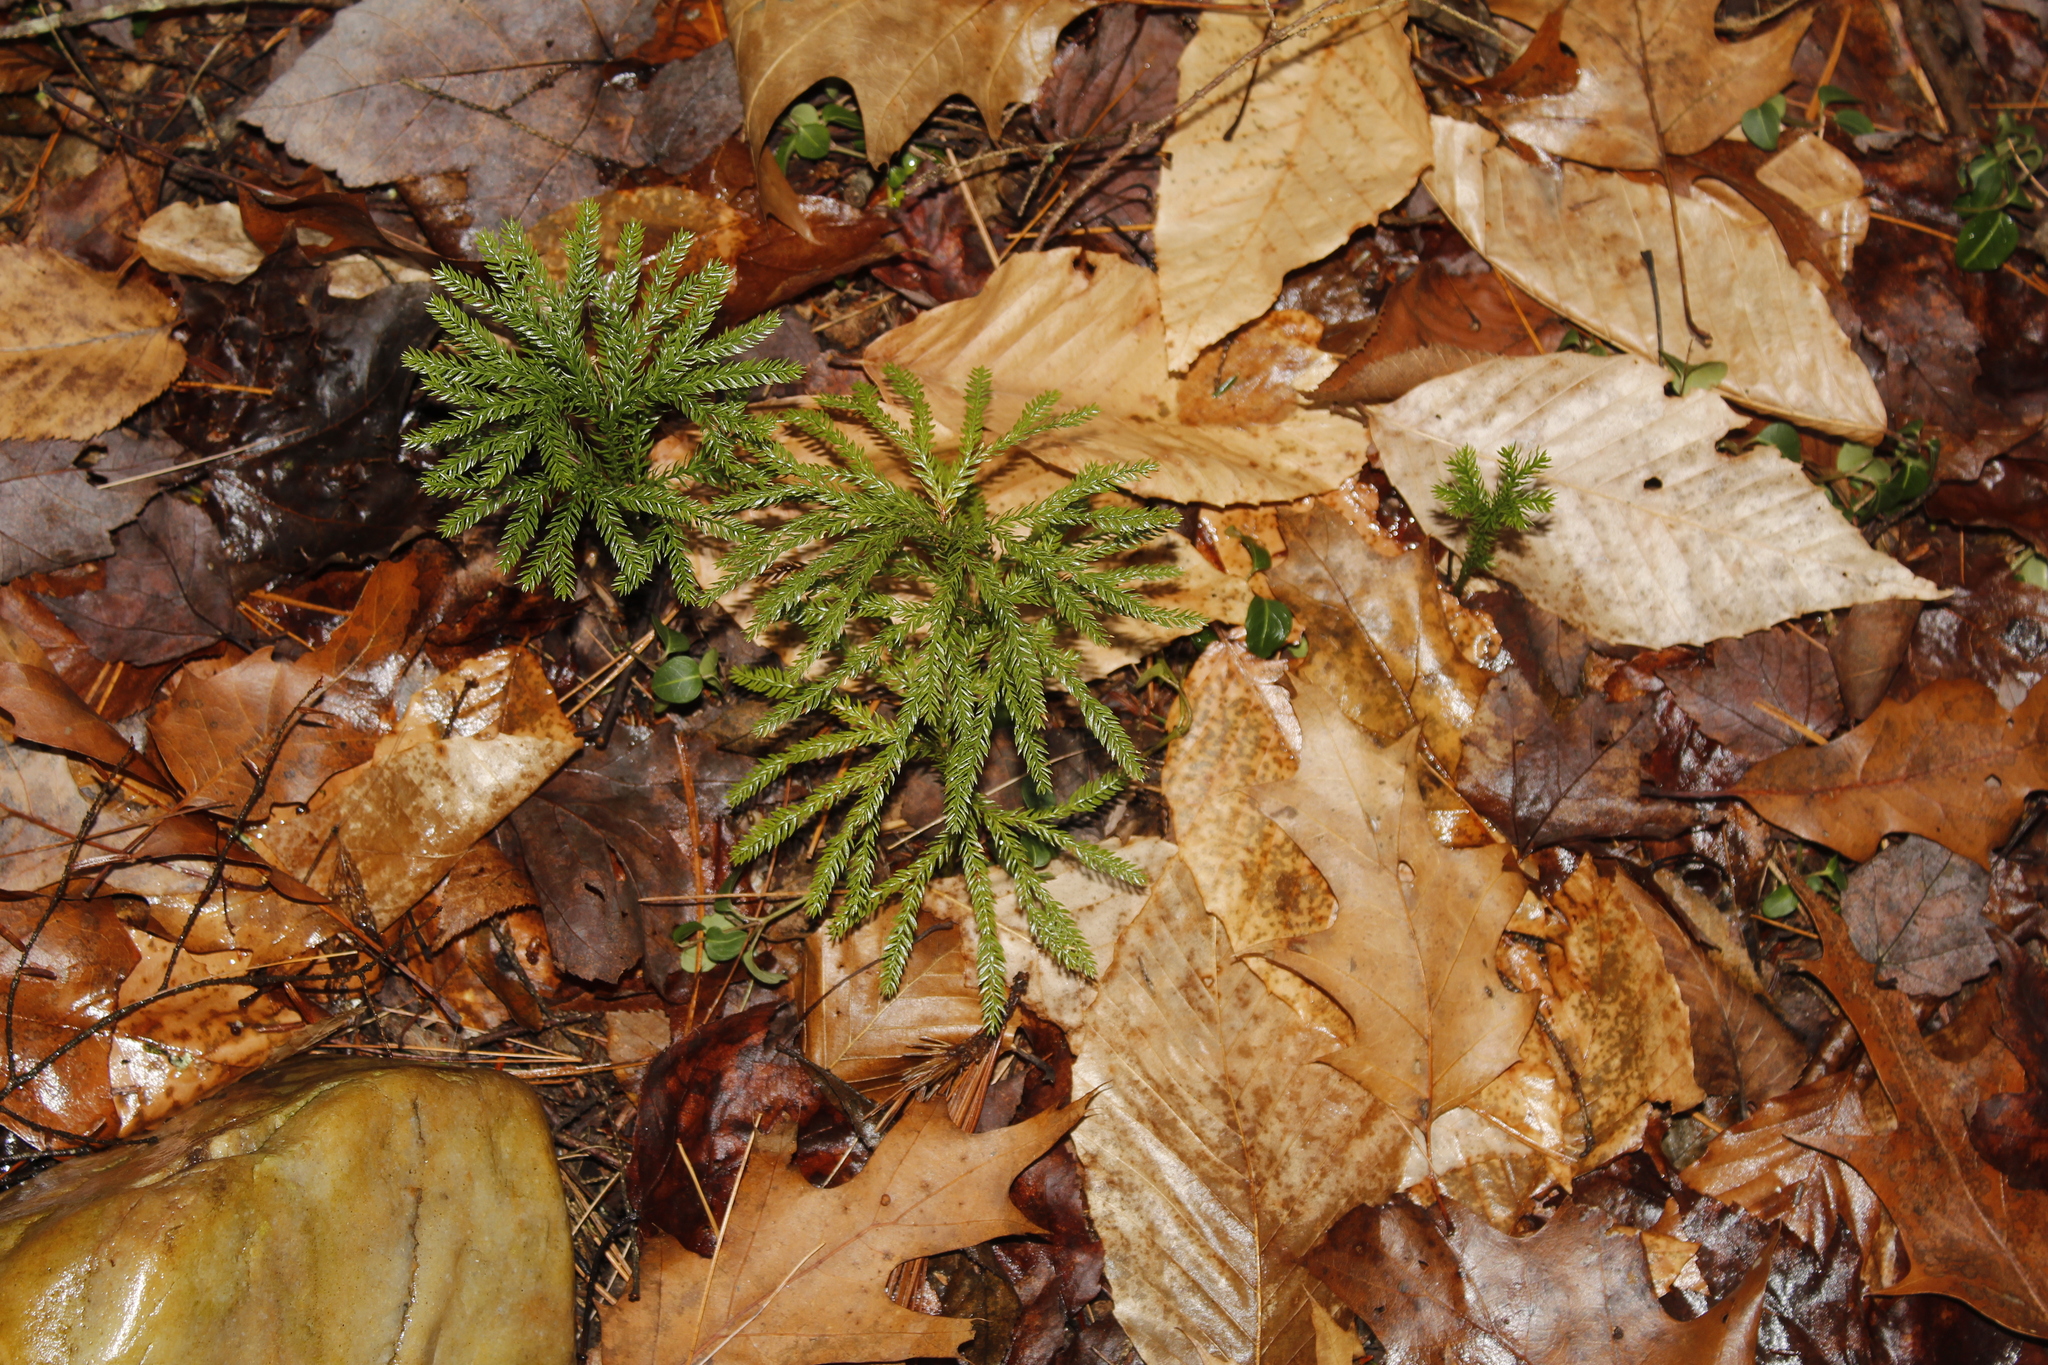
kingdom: Plantae
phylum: Tracheophyta
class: Lycopodiopsida
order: Lycopodiales
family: Lycopodiaceae
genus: Dendrolycopodium
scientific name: Dendrolycopodium obscurum
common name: Common ground-pine
